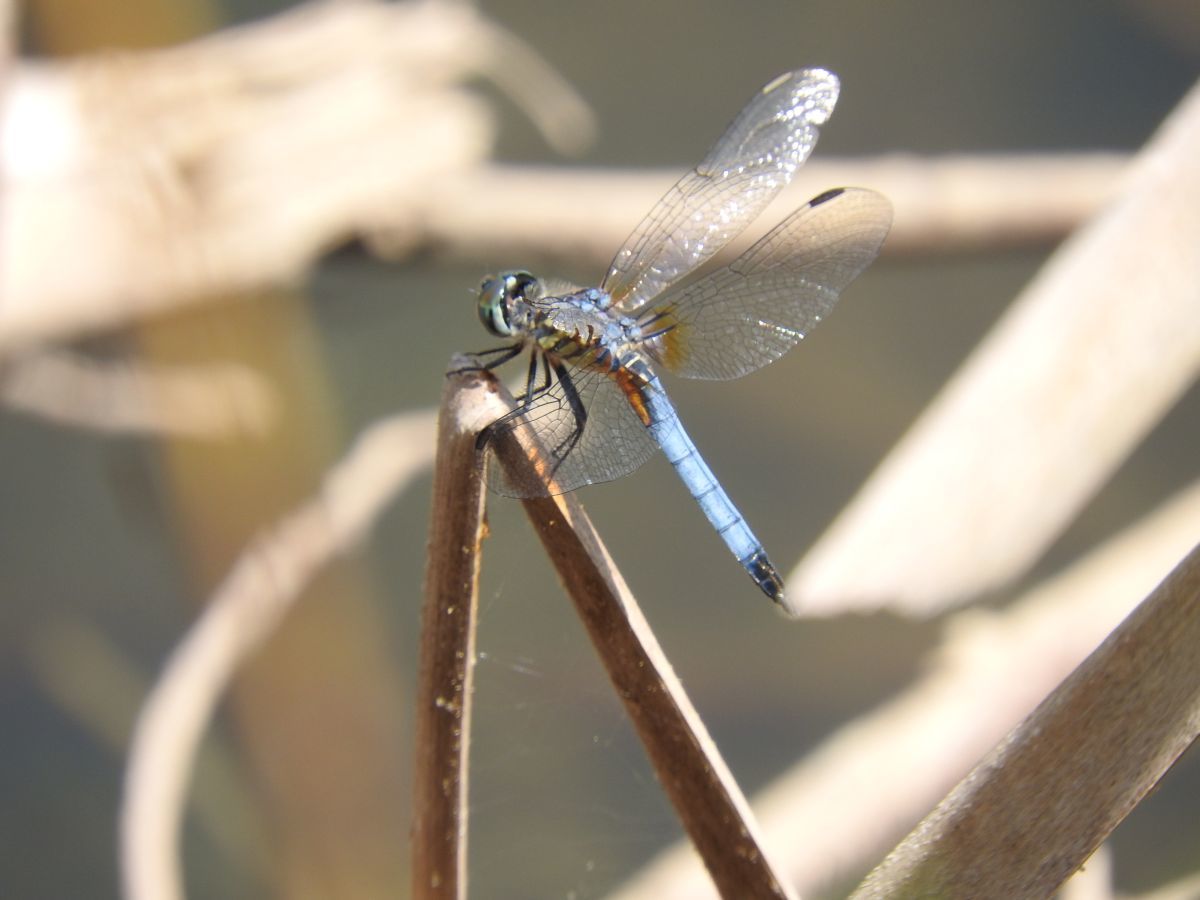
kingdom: Animalia
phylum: Arthropoda
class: Insecta
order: Odonata
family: Libellulidae
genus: Pachydiplax
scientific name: Pachydiplax longipennis
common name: Blue dasher
